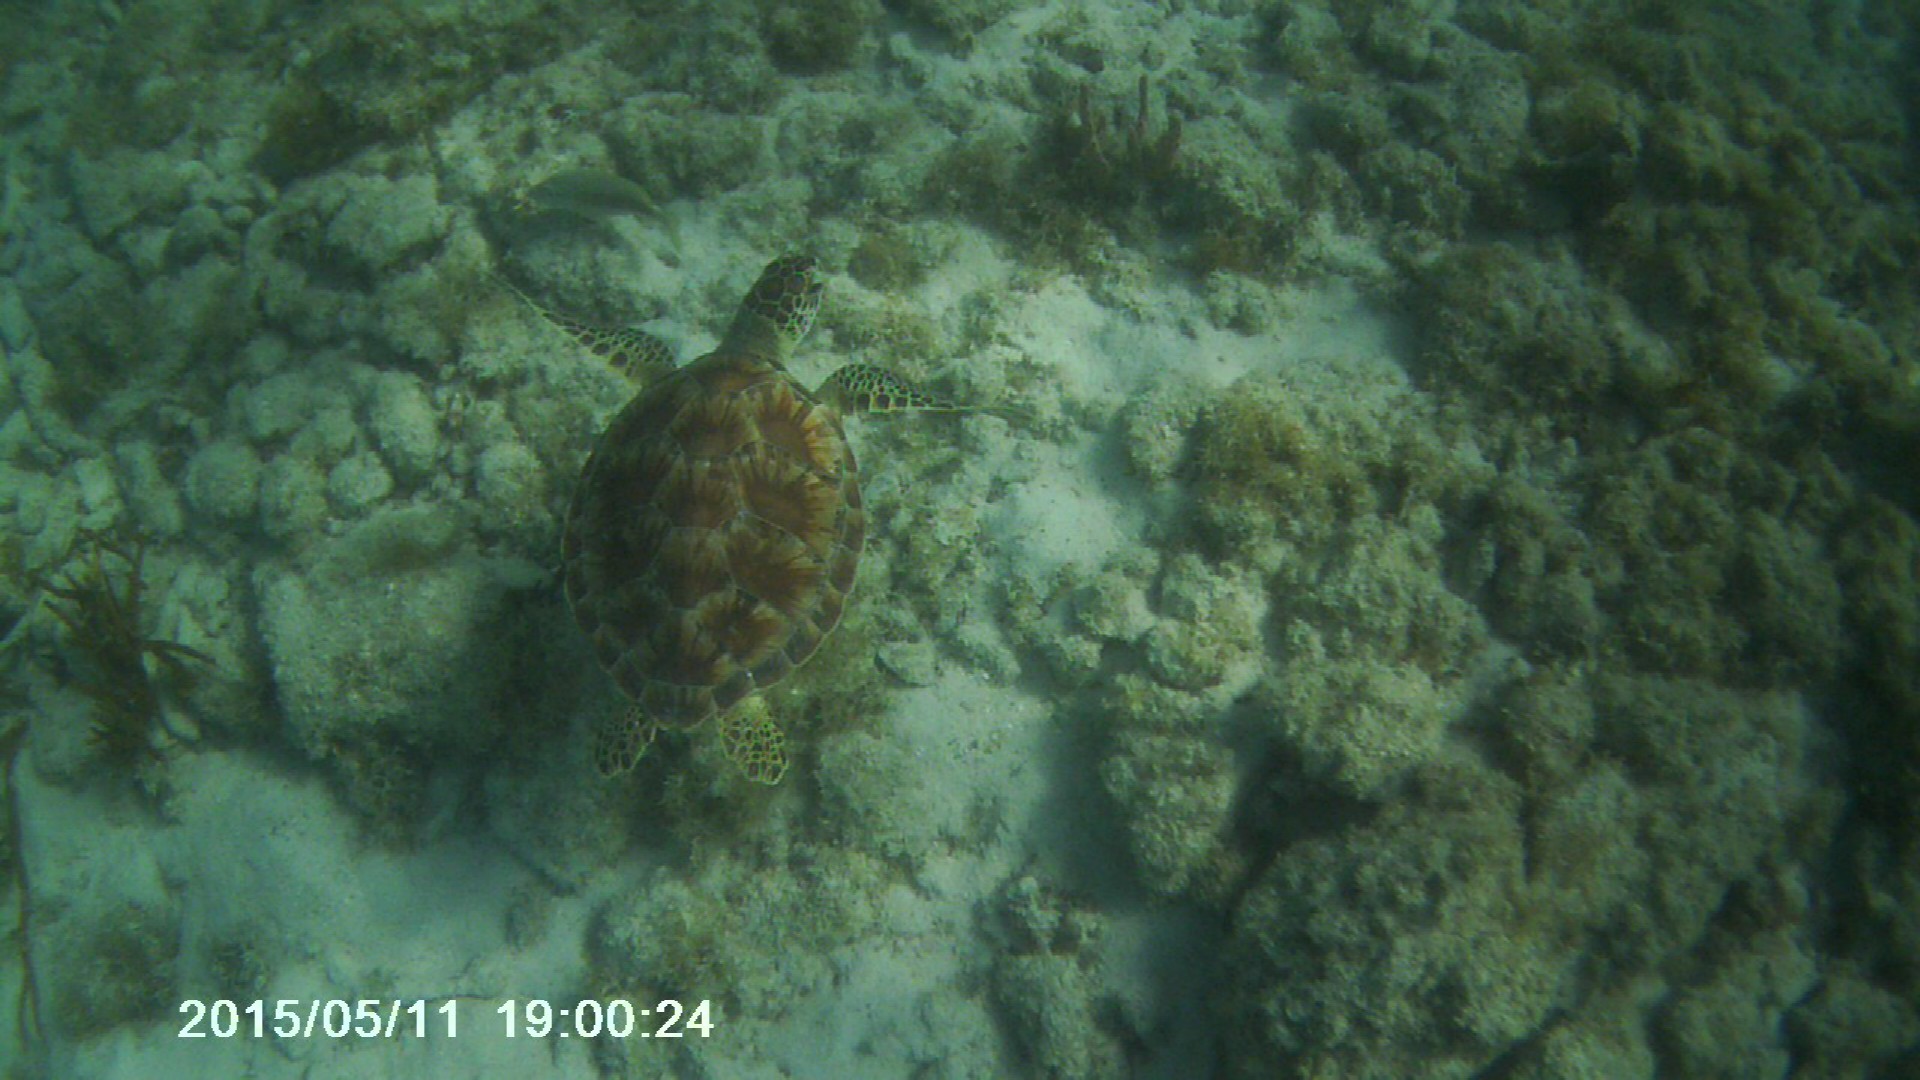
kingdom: Animalia
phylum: Chordata
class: Testudines
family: Cheloniidae
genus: Chelonia
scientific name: Chelonia mydas
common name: Green turtle
